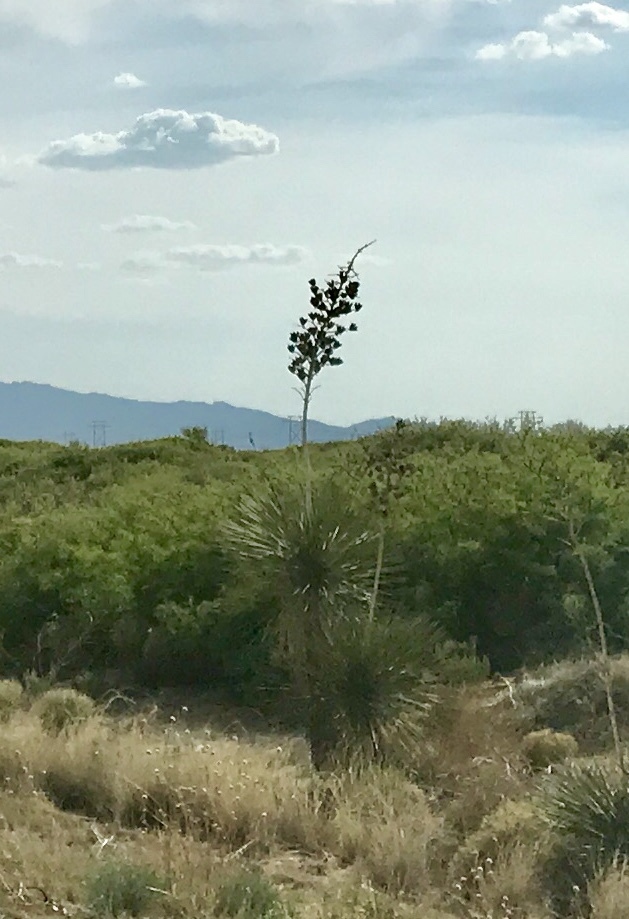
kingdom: Plantae
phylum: Tracheophyta
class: Liliopsida
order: Asparagales
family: Asparagaceae
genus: Yucca
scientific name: Yucca elata
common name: Palmella
